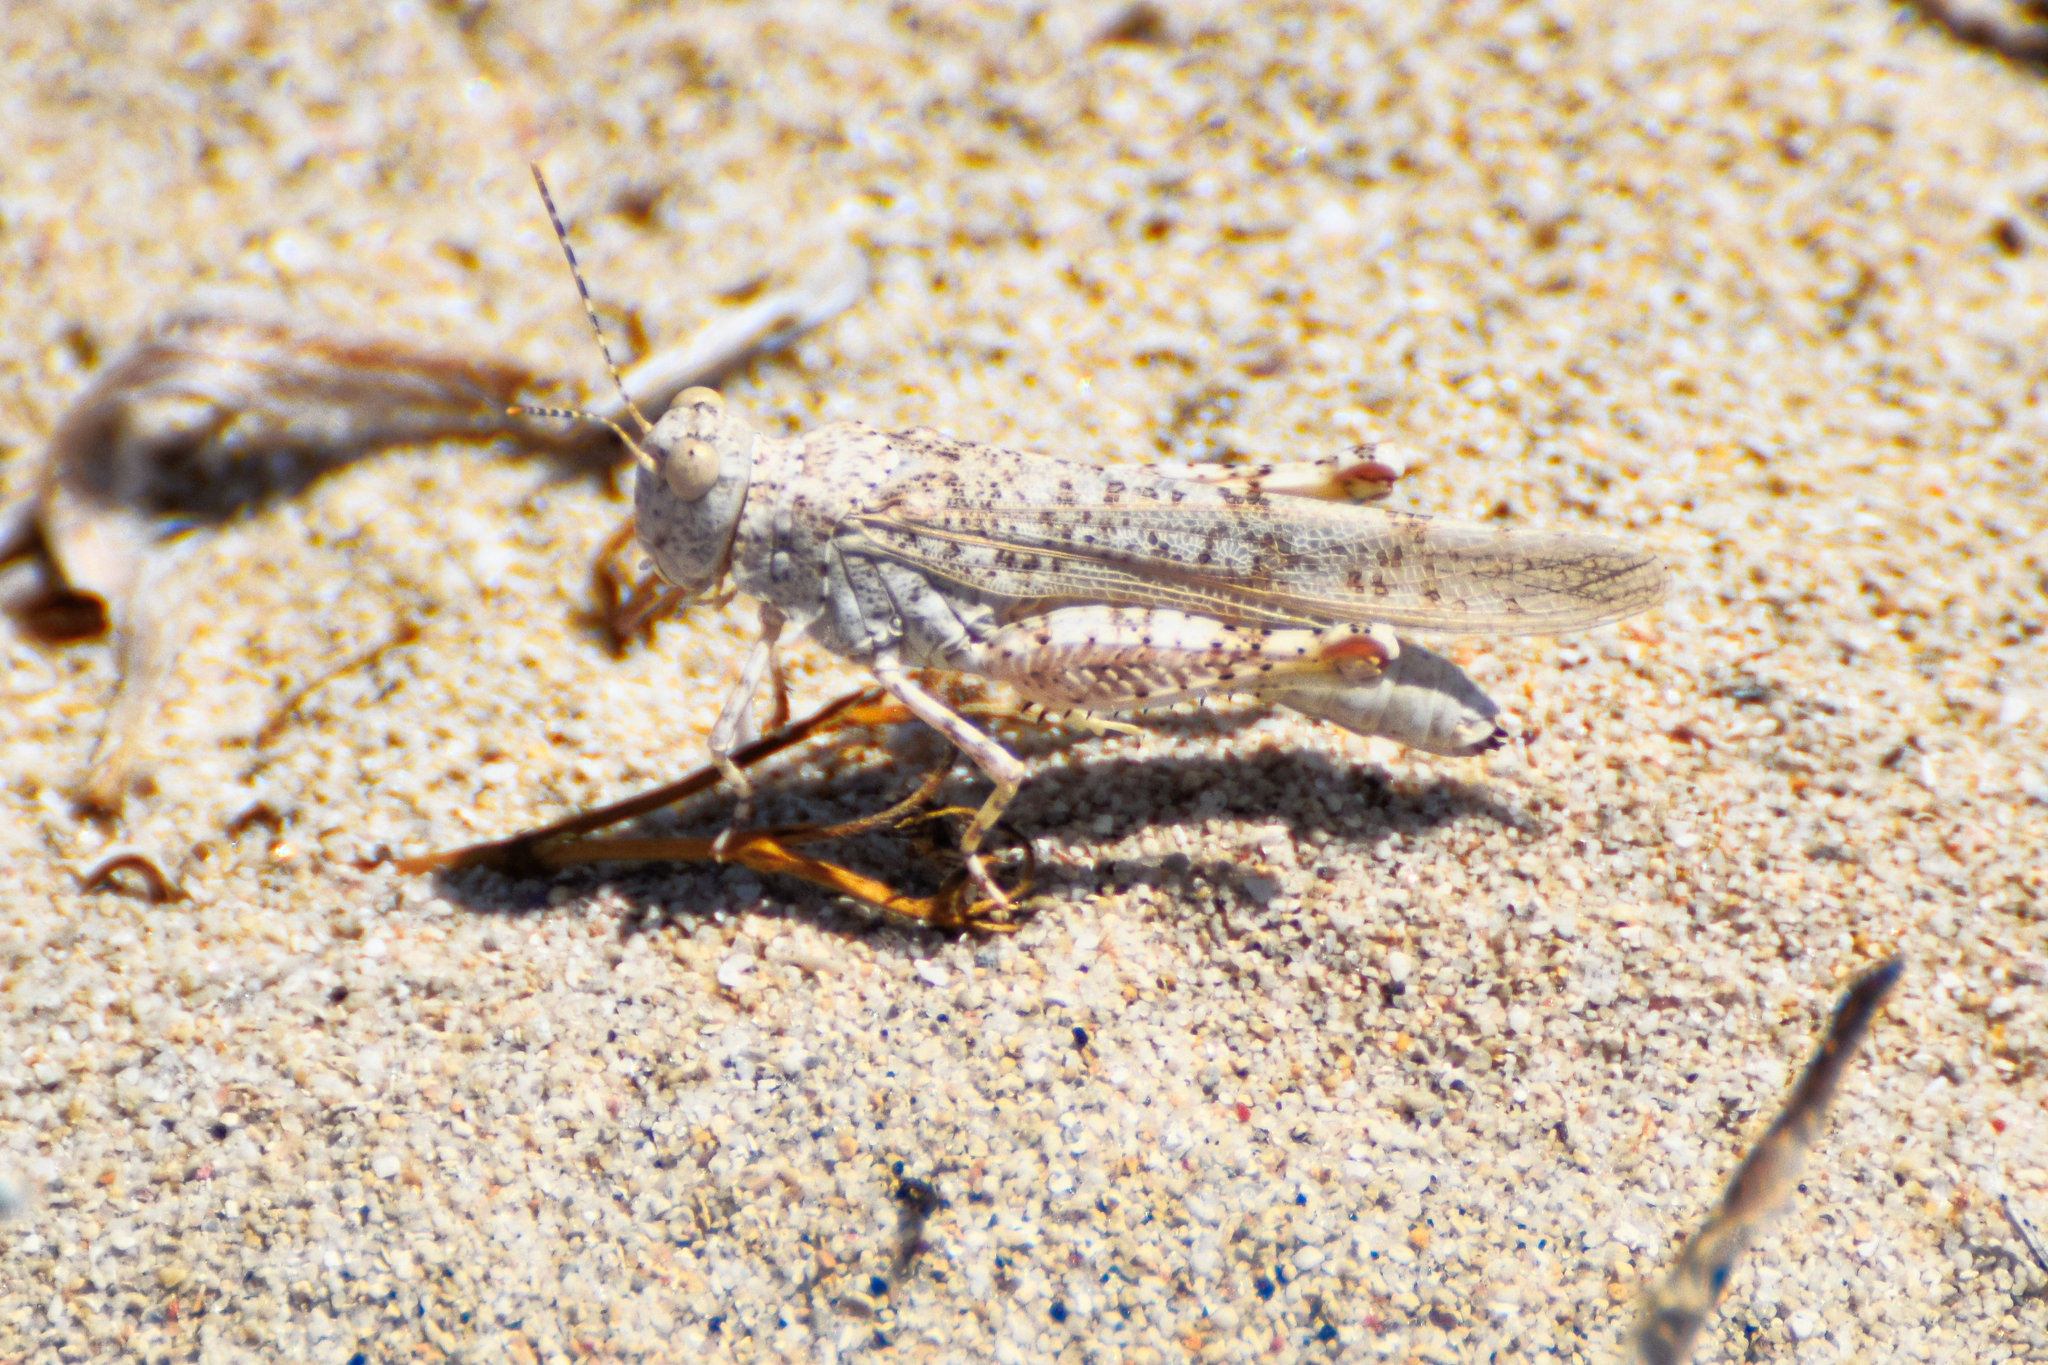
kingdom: Animalia
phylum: Arthropoda
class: Insecta
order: Orthoptera
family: Acrididae
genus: Sphingonotus
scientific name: Sphingonotus personatus
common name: Italian sand grasshopper
